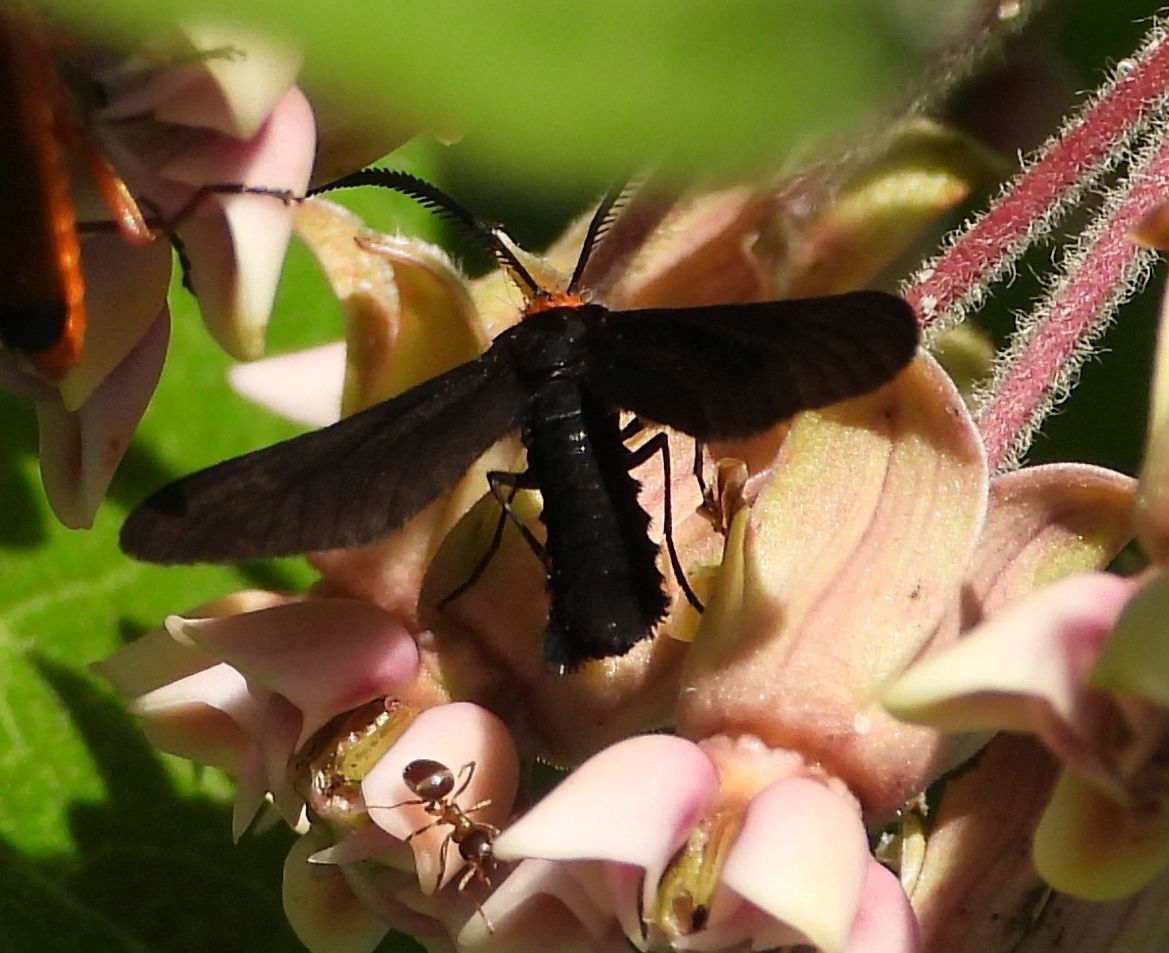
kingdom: Animalia
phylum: Arthropoda
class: Insecta
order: Lepidoptera
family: Zygaenidae
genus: Harrisina
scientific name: Harrisina americana
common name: Grapeleaf skeletonizer moth
